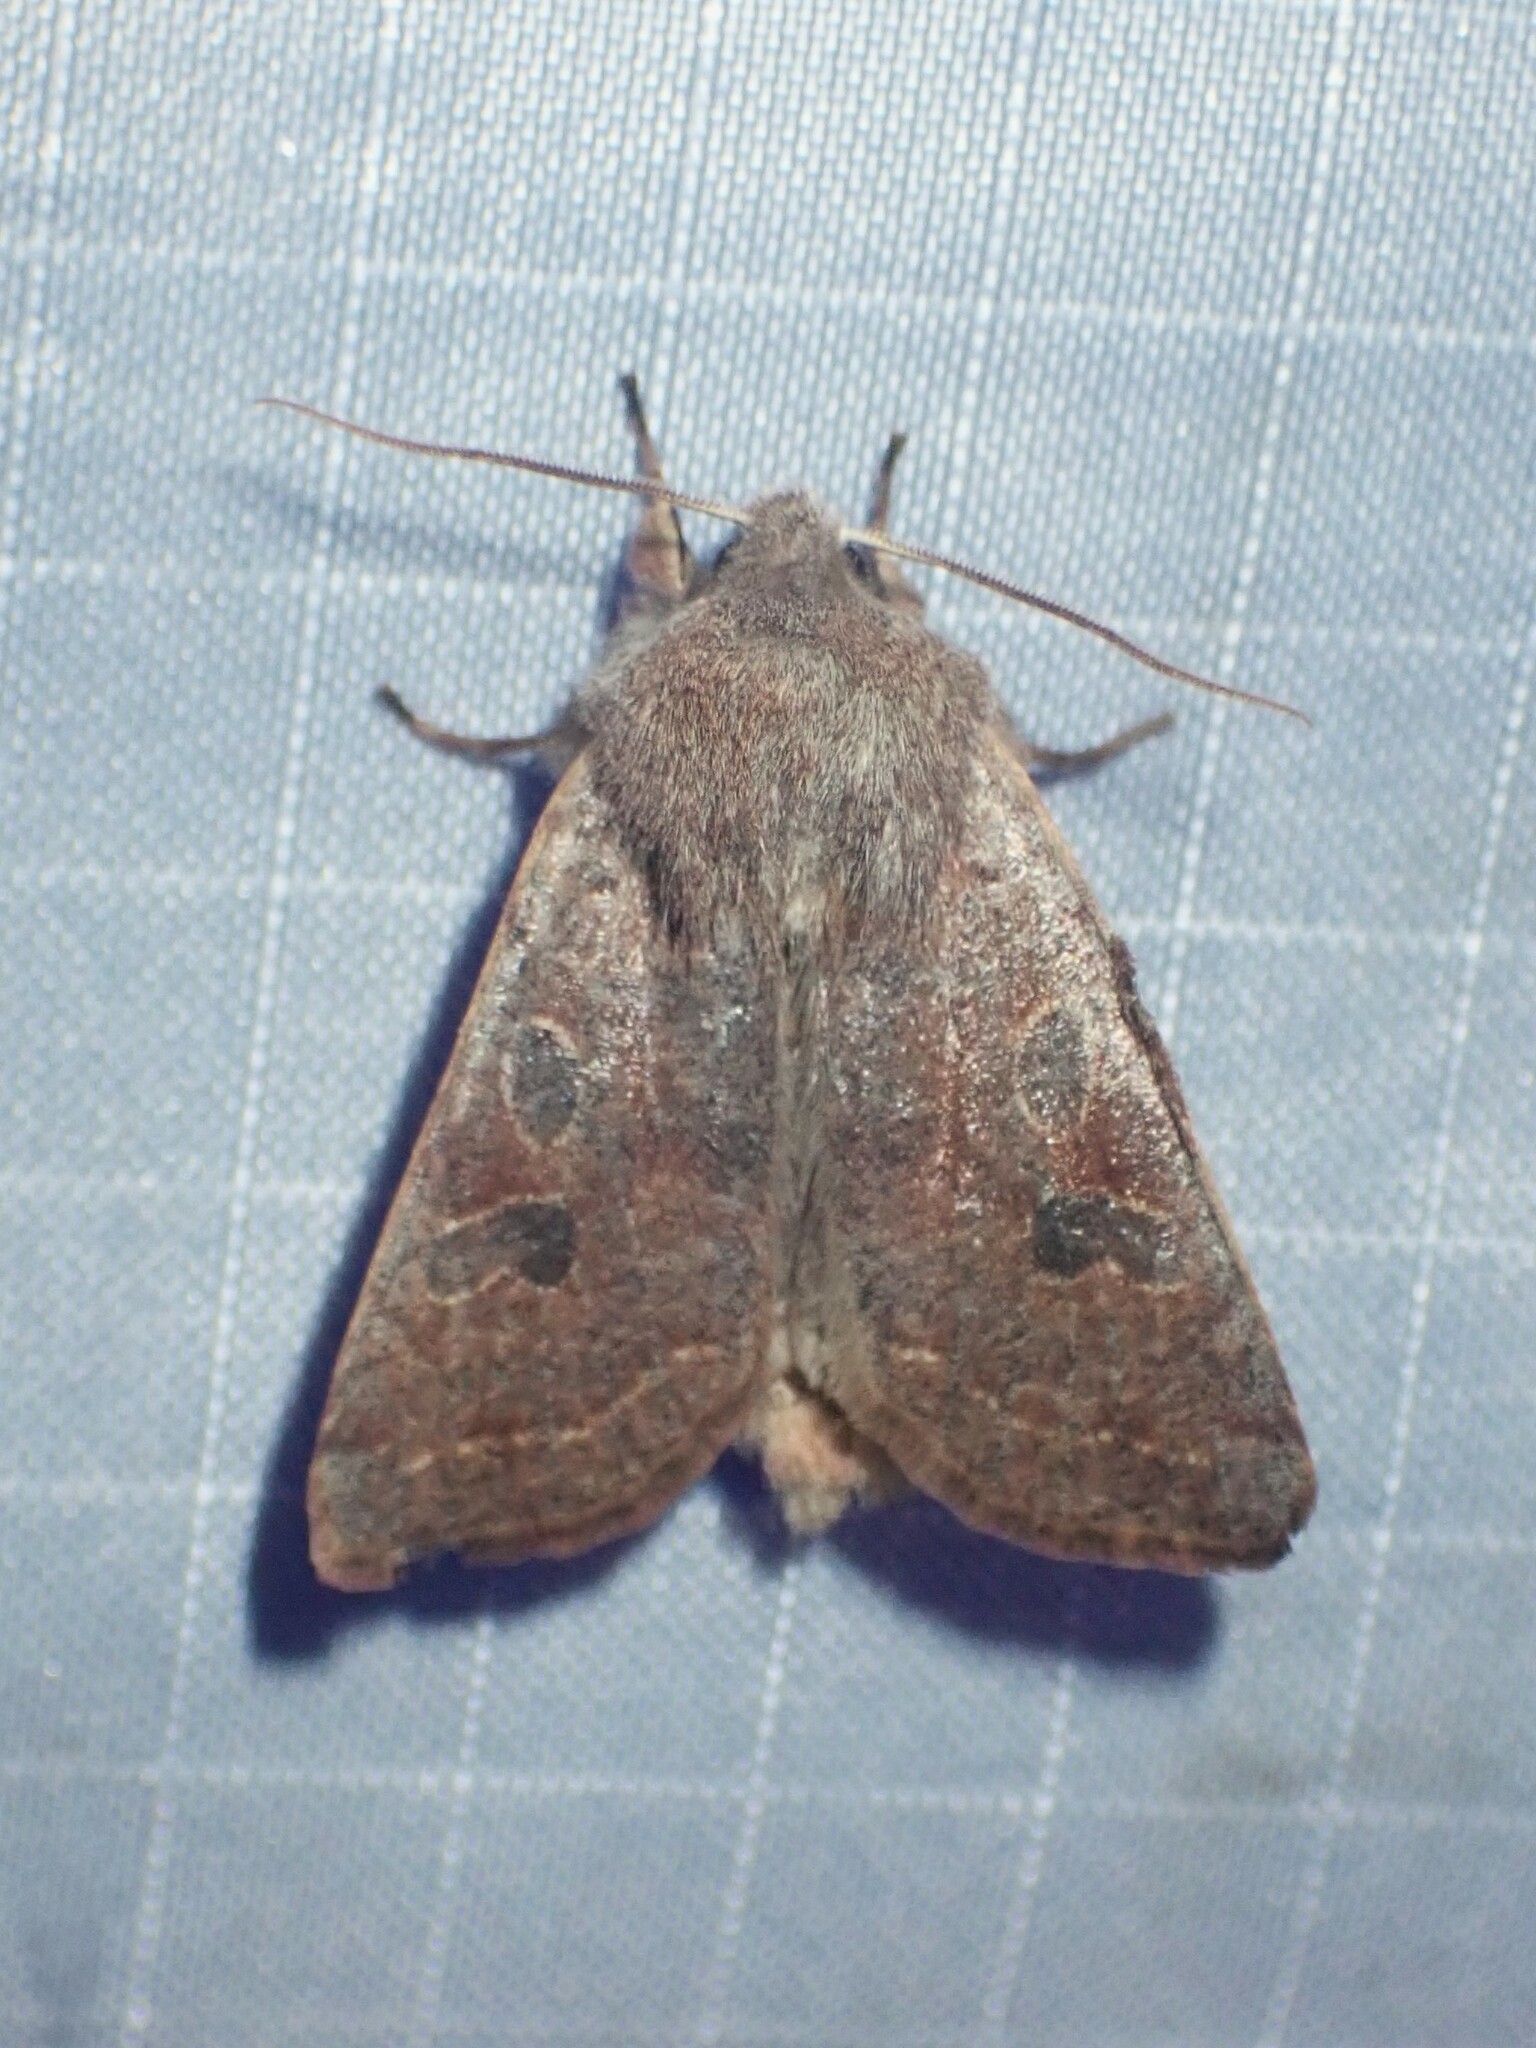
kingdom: Animalia
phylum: Arthropoda
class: Insecta
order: Lepidoptera
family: Noctuidae
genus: Orthosia
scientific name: Orthosia hibisci
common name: Green fruitworm
